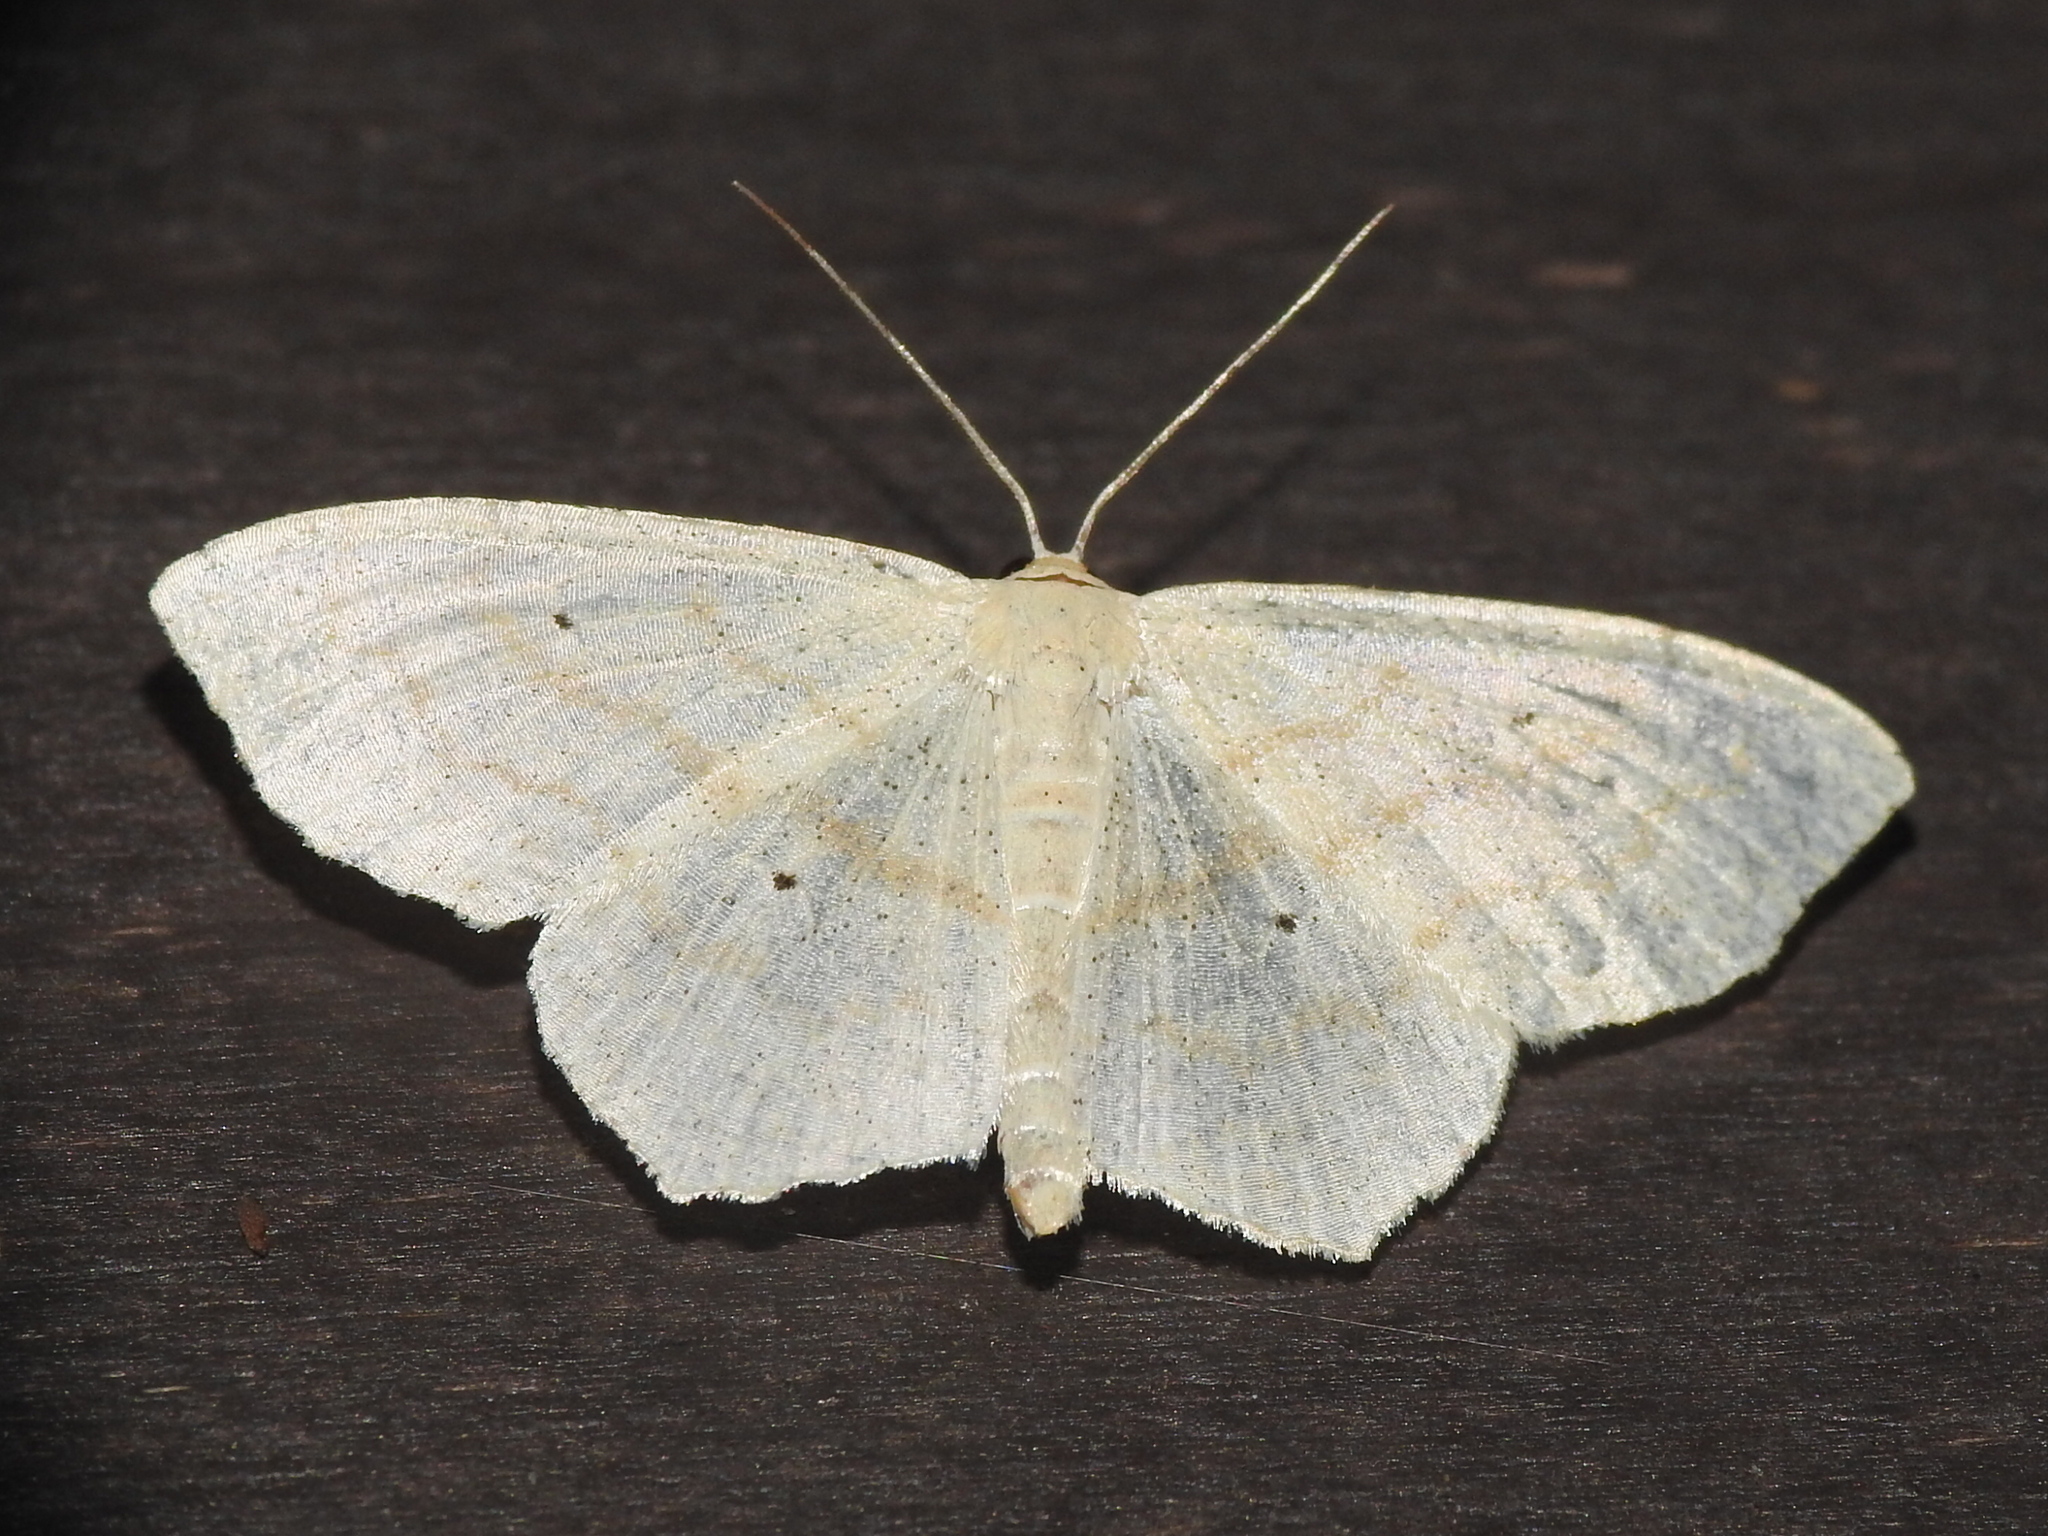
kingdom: Animalia
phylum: Arthropoda
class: Insecta
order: Lepidoptera
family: Geometridae
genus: Scopula
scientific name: Scopula limboundata
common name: Large lace border
